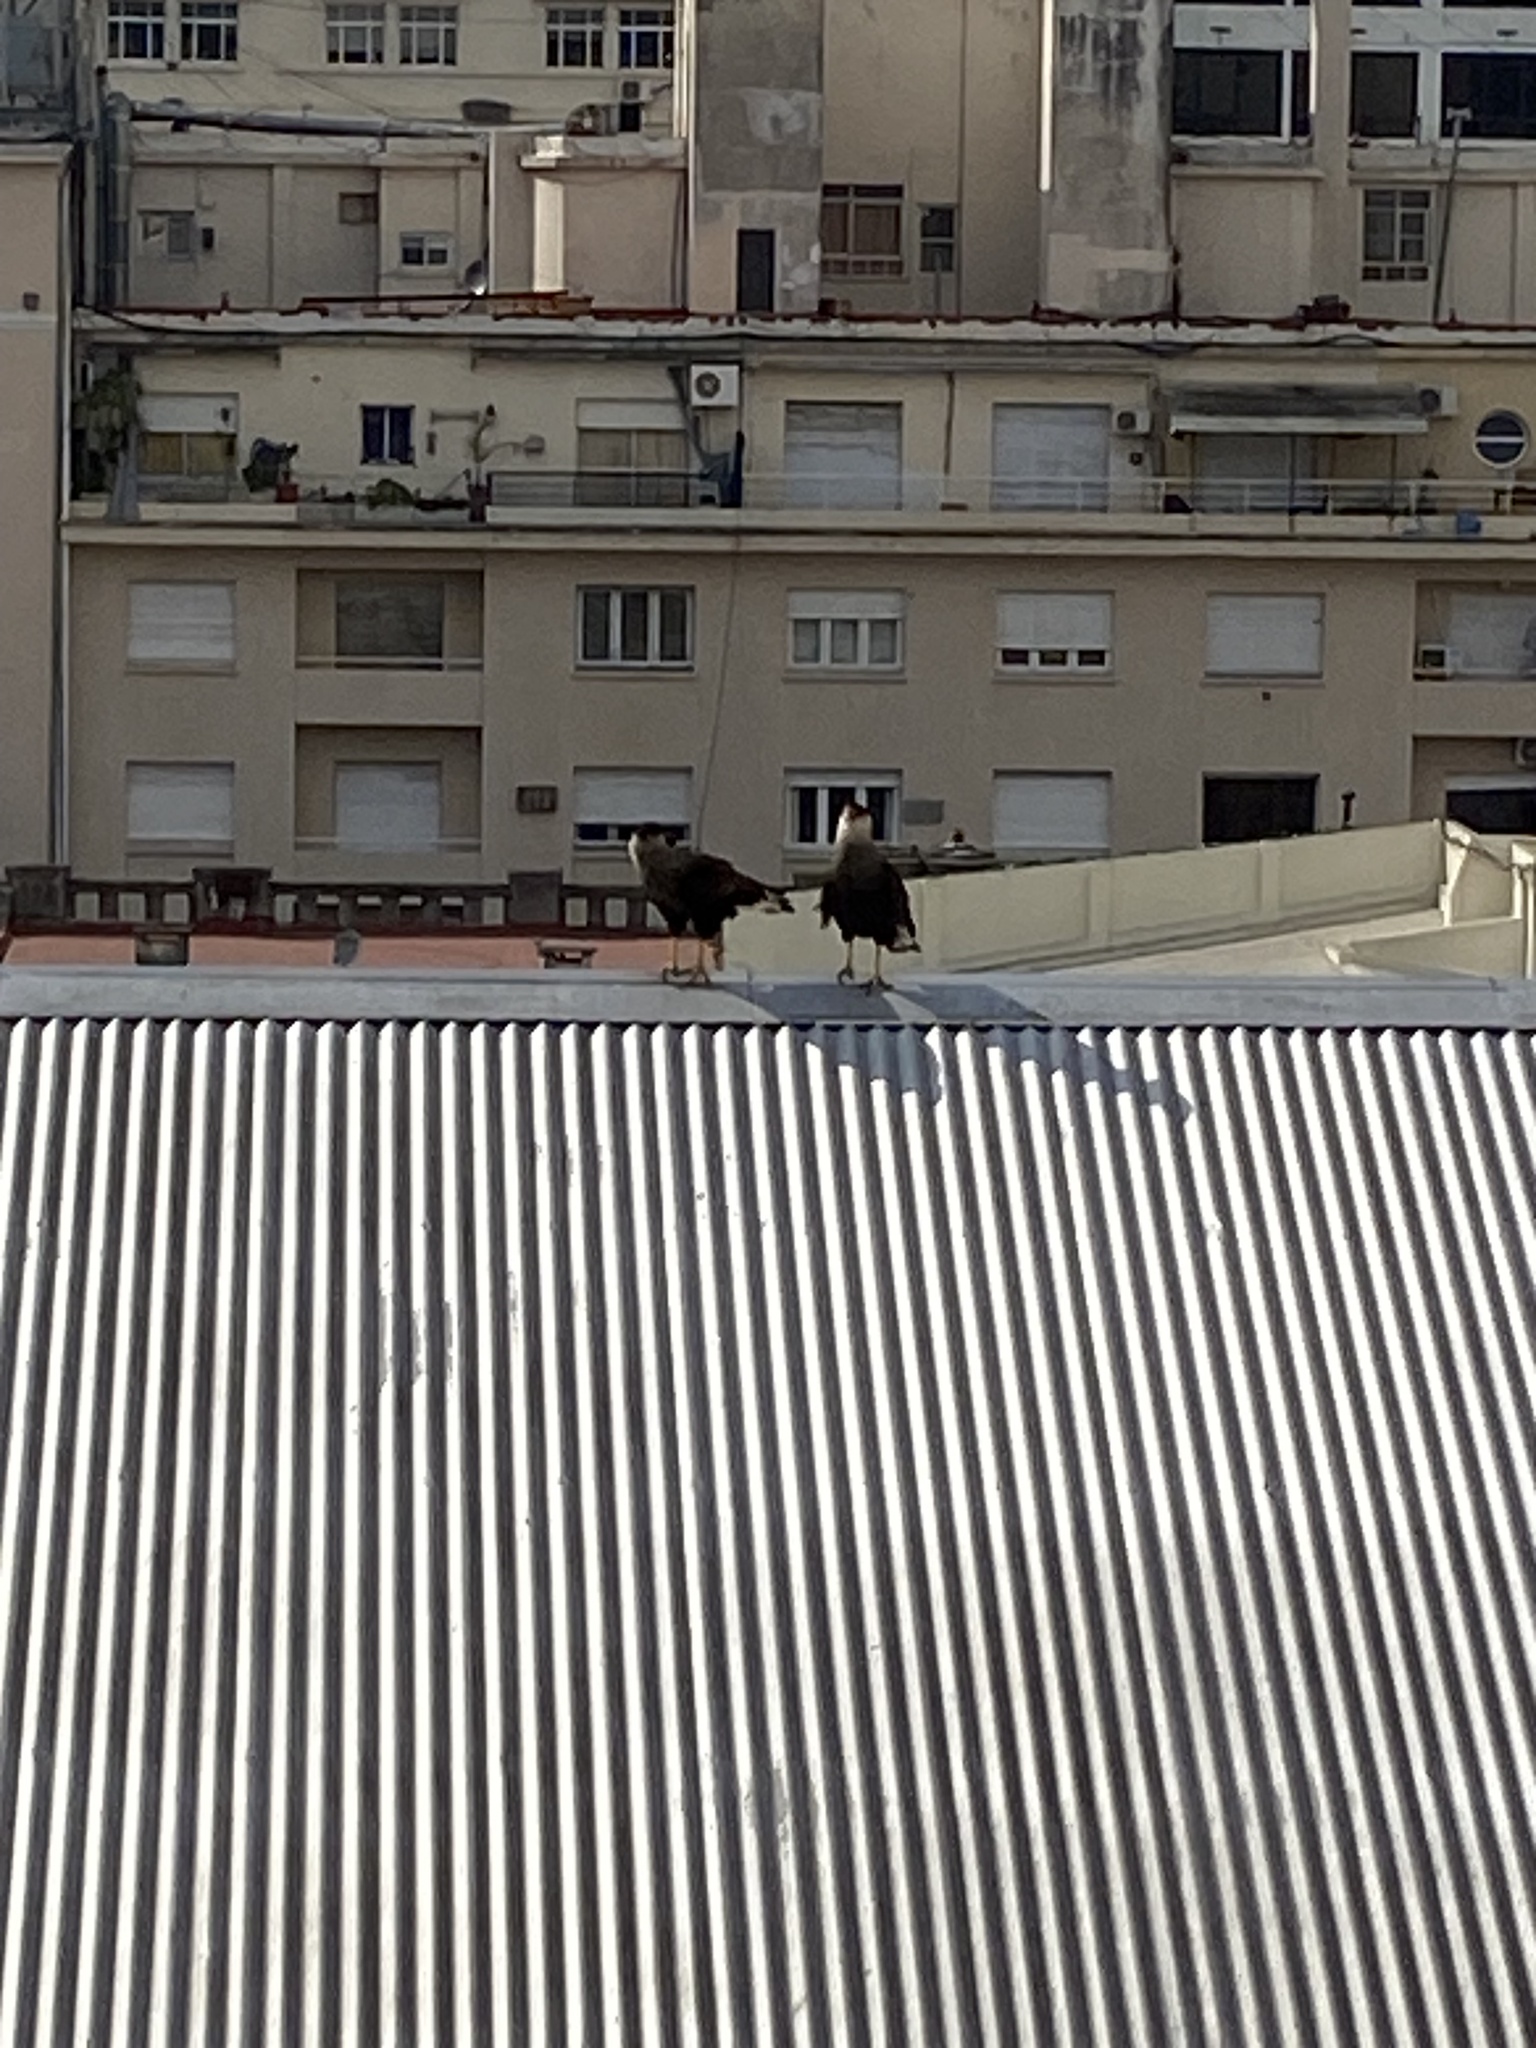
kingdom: Animalia
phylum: Chordata
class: Aves
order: Falconiformes
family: Falconidae
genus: Caracara
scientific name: Caracara plancus
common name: Southern caracara
